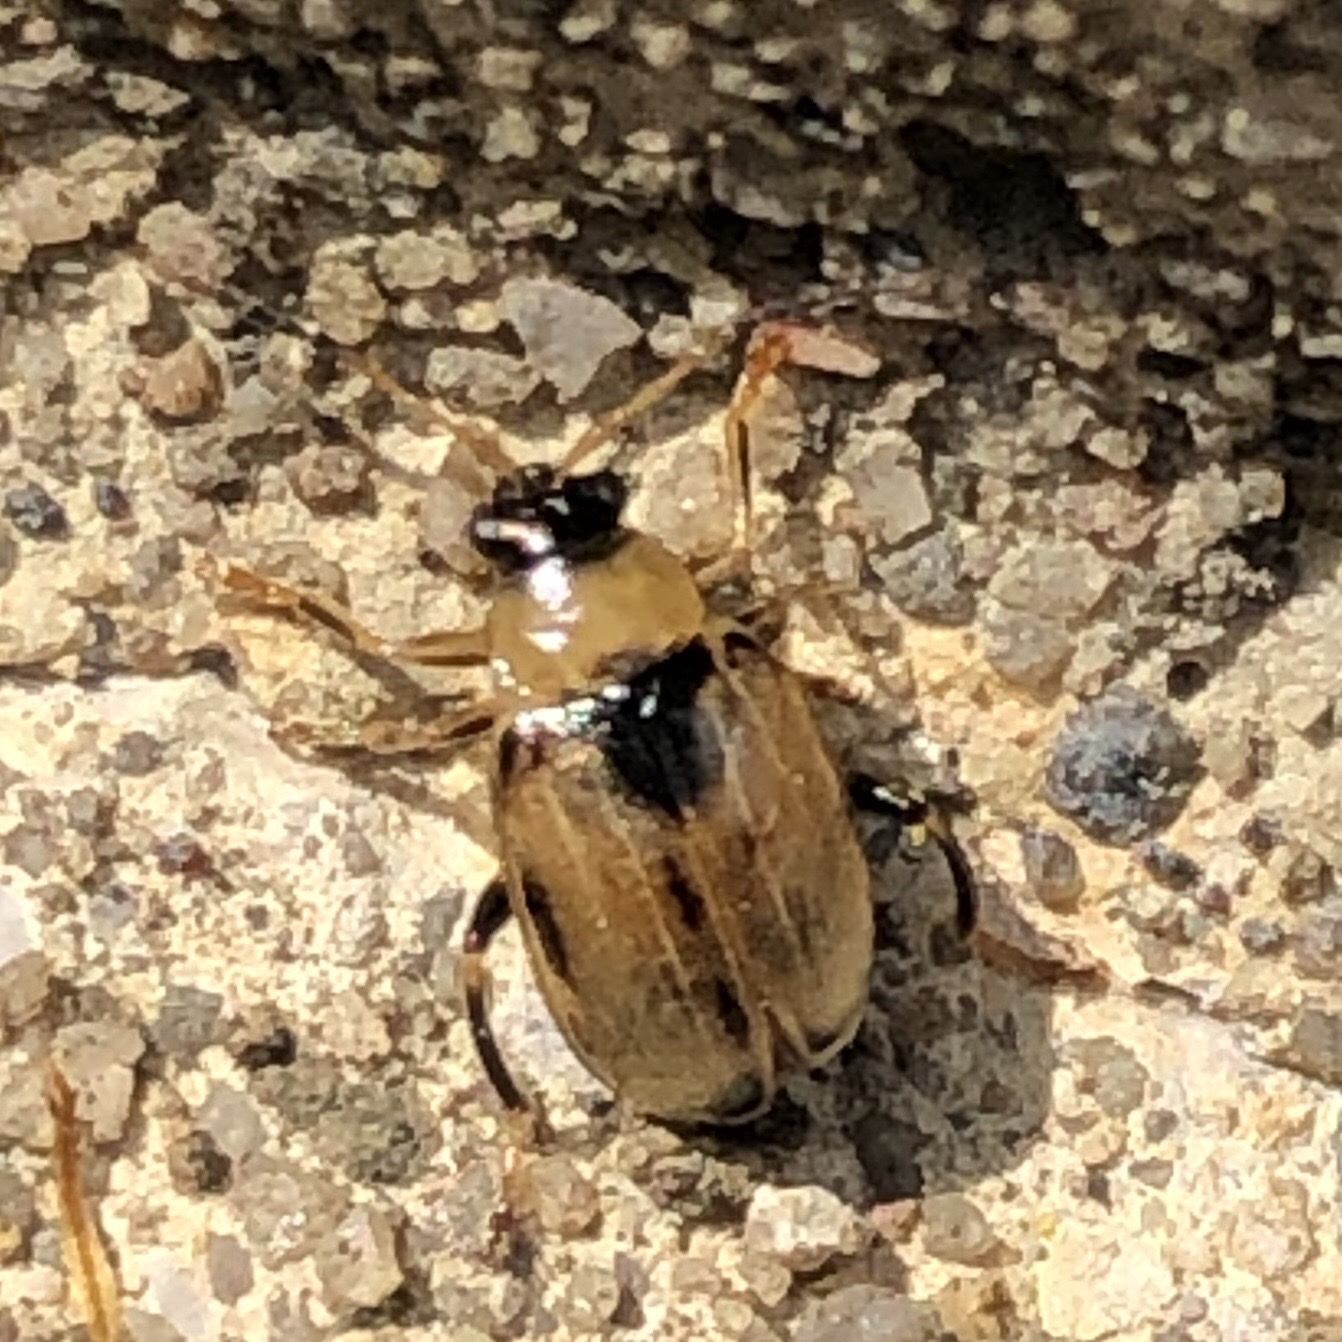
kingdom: Animalia
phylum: Arthropoda
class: Insecta
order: Coleoptera
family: Chrysomelidae
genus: Cerotoma
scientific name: Cerotoma trifurcata
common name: Bean leaf beetle
